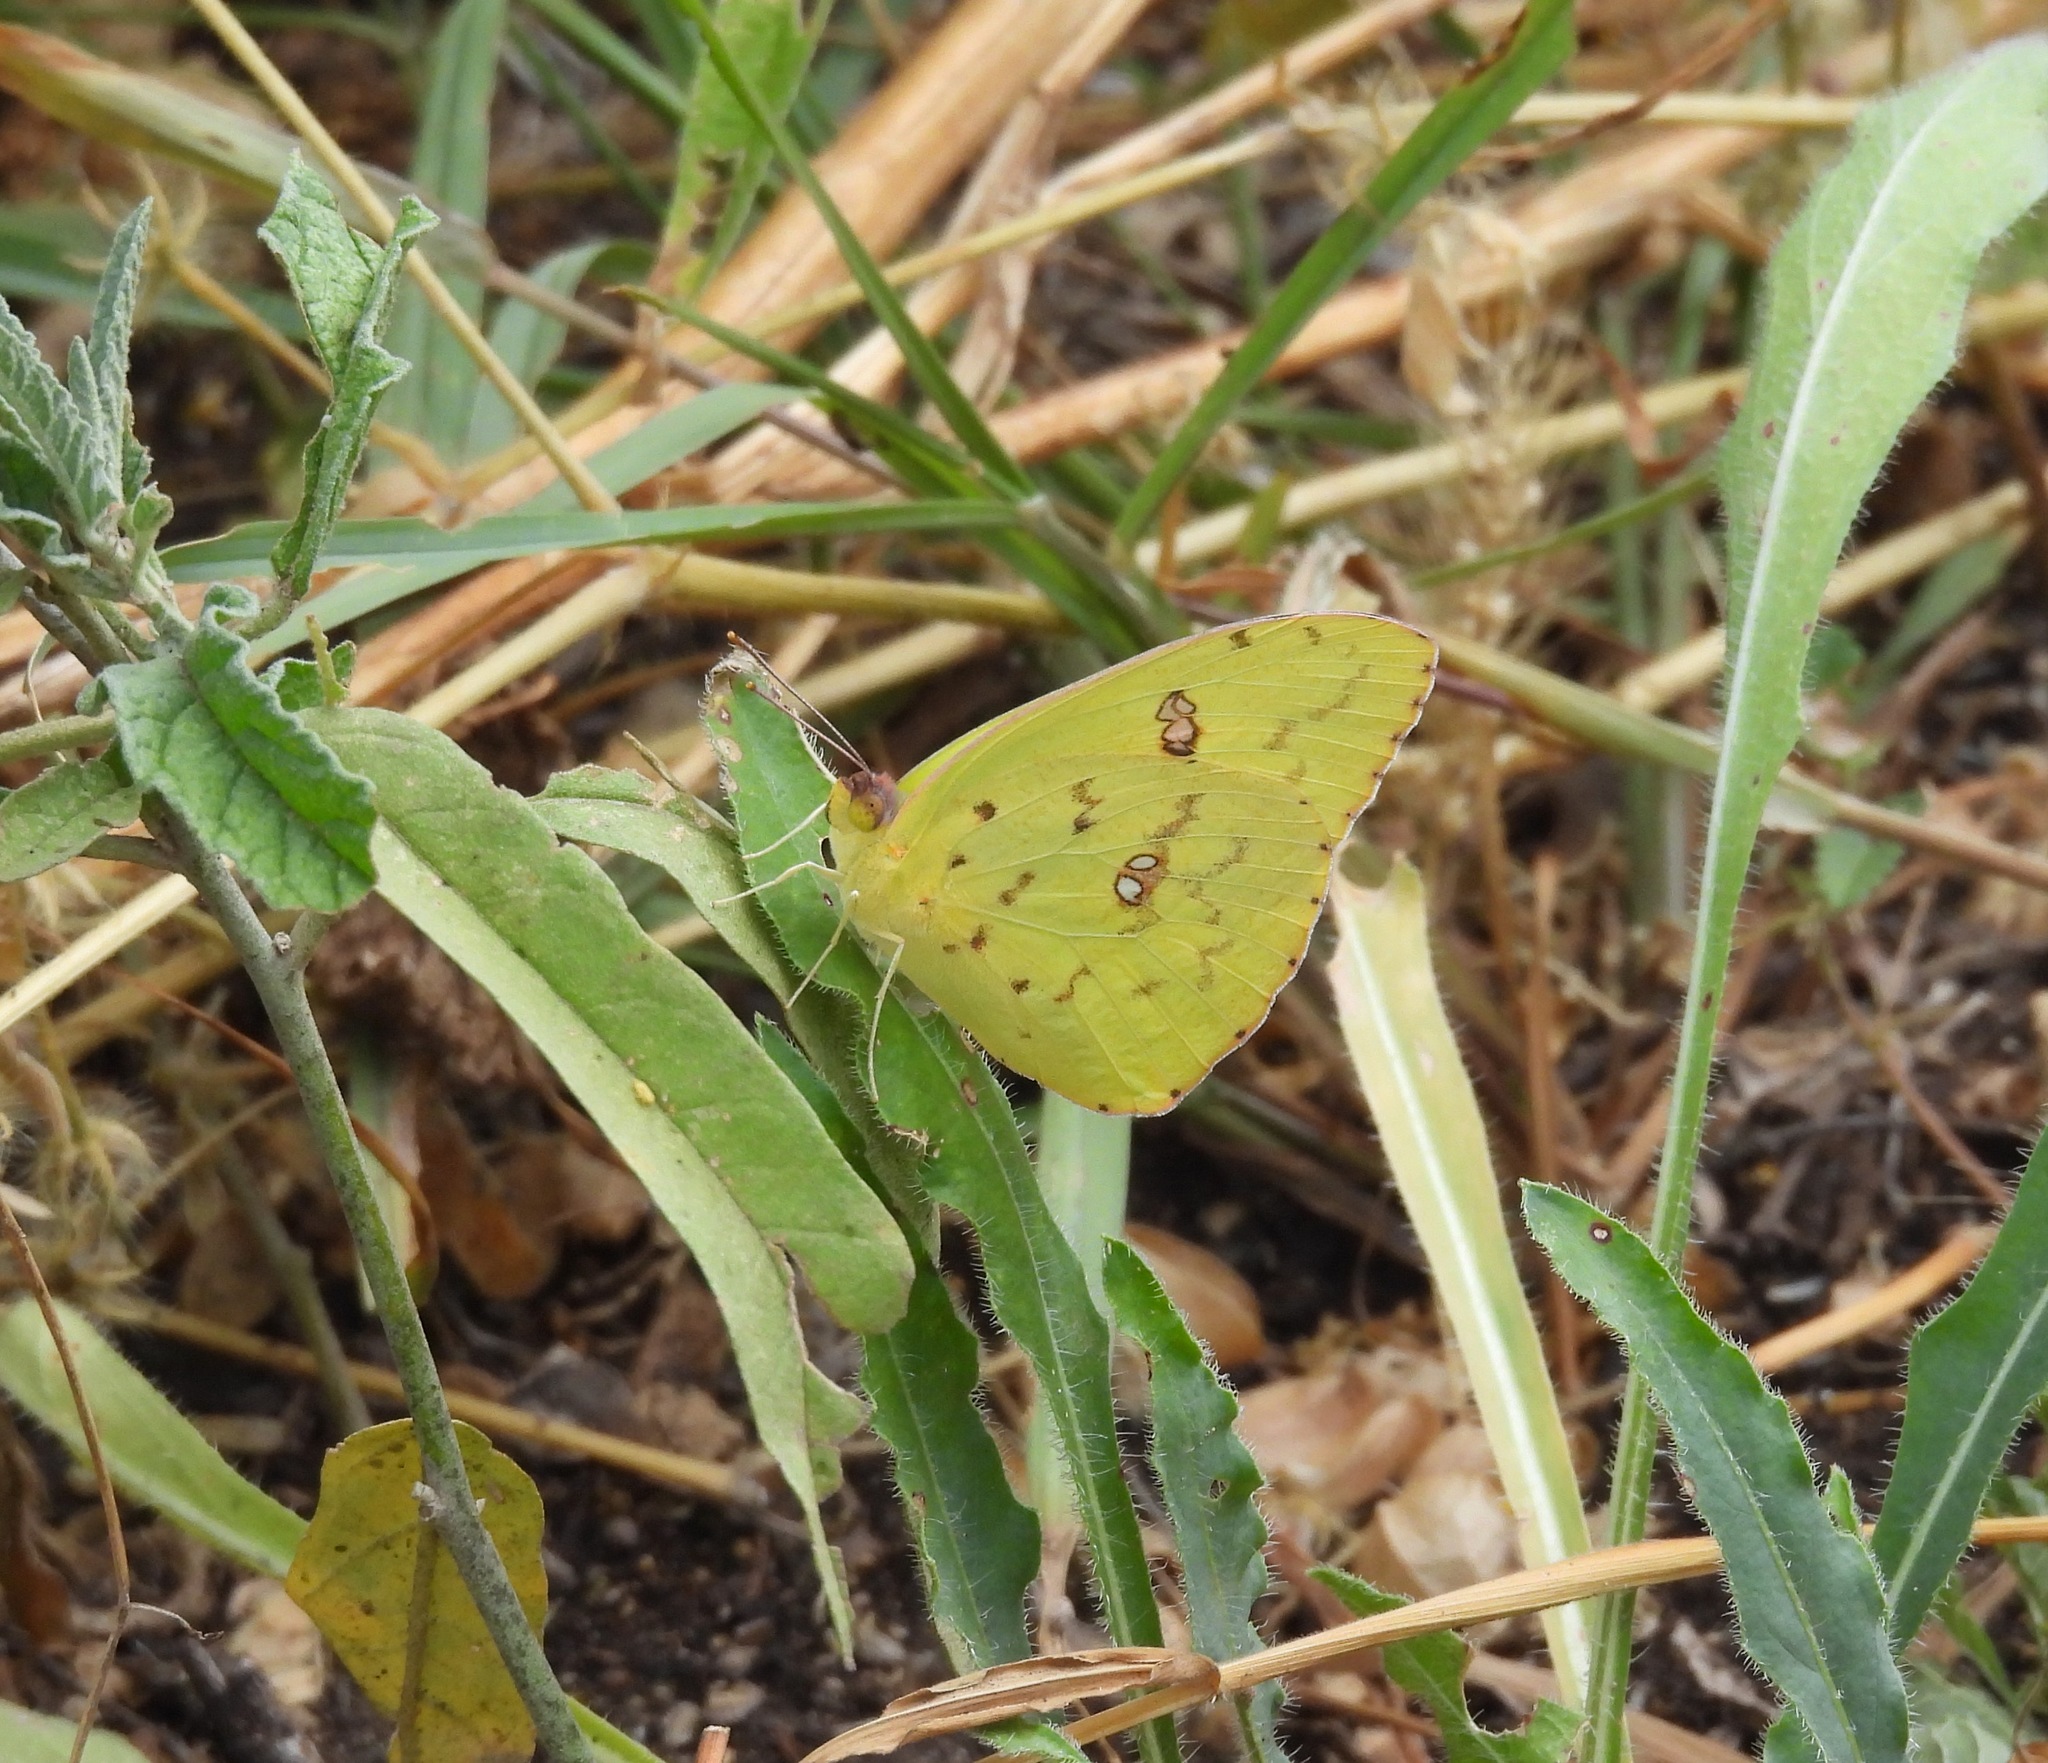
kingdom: Animalia
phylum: Arthropoda
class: Insecta
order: Lepidoptera
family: Pieridae
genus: Phoebis
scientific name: Phoebis sennae
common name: Cloudless sulphur
